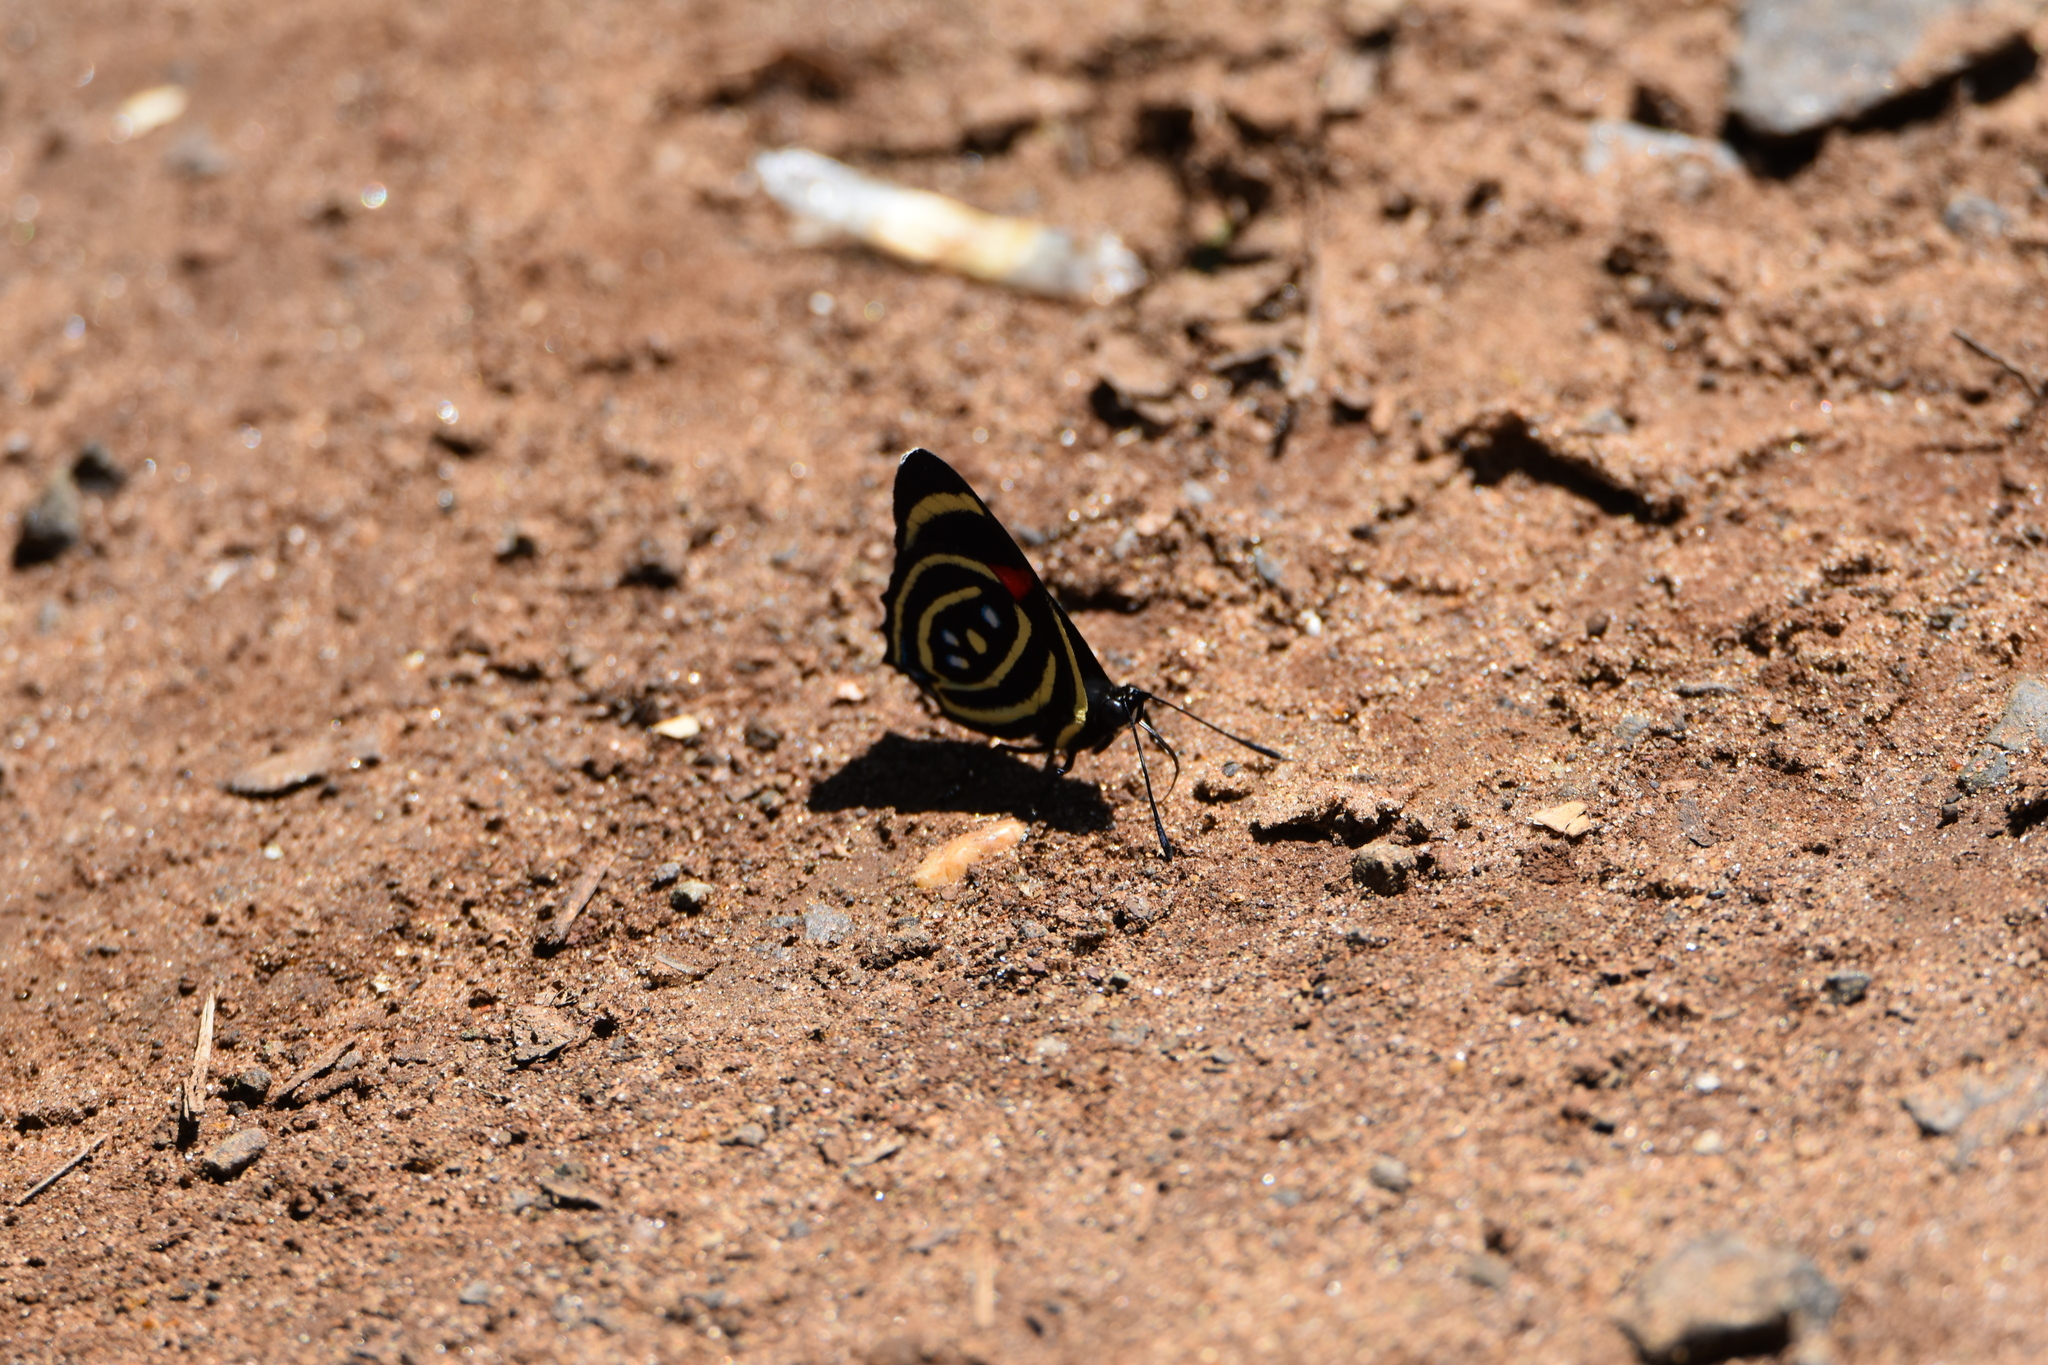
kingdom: Animalia
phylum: Arthropoda
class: Insecta
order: Lepidoptera
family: Nymphalidae
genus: Catagramma
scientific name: Catagramma Callicore hydaspes
